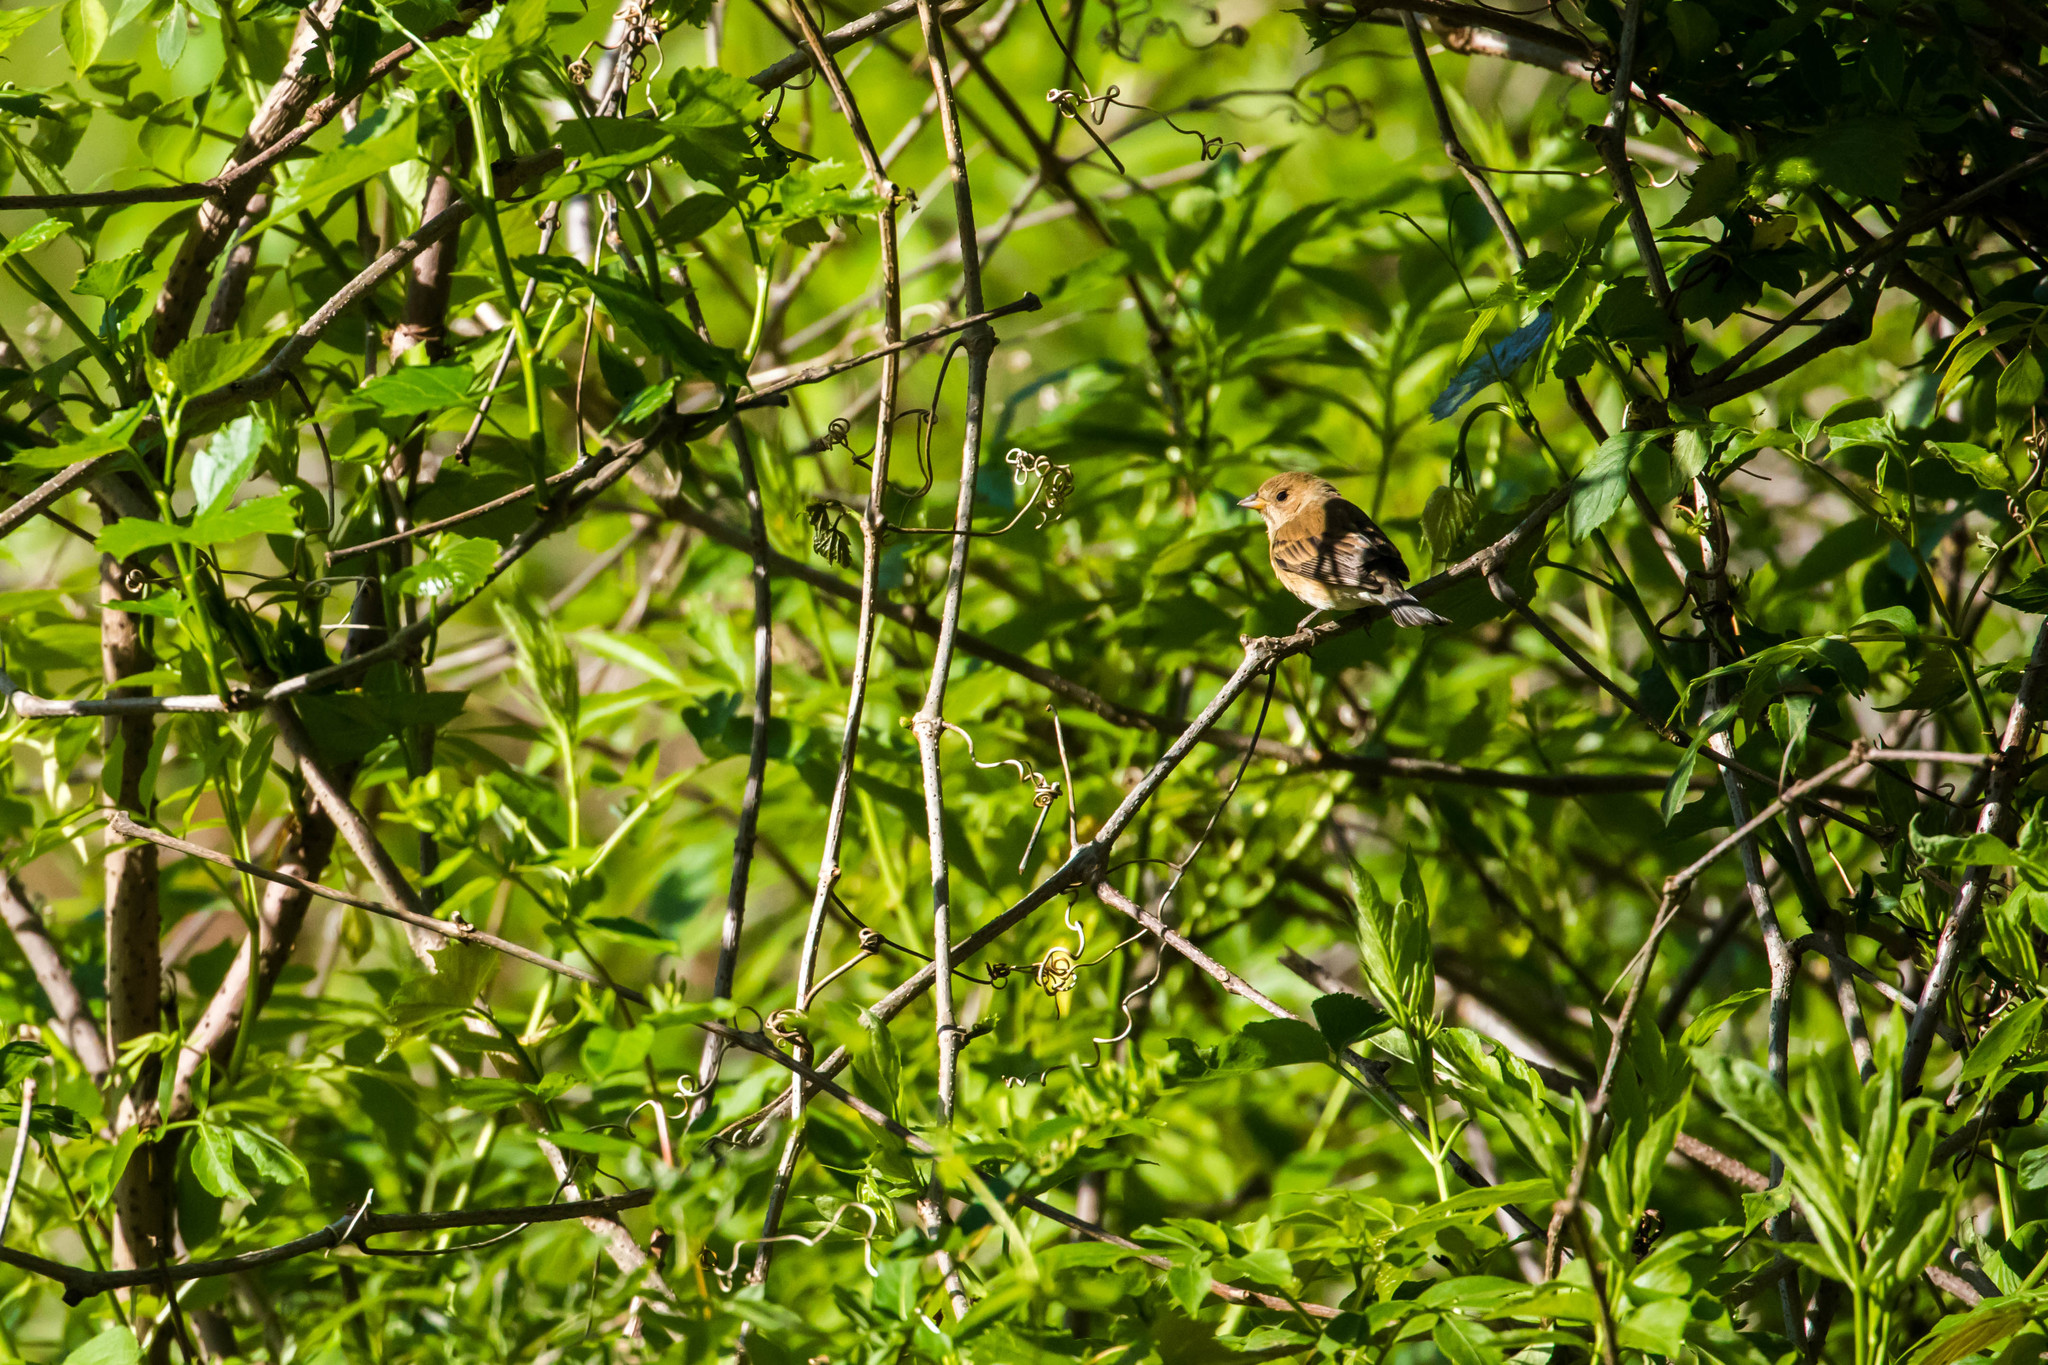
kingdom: Animalia
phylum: Chordata
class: Aves
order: Passeriformes
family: Cardinalidae
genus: Passerina
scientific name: Passerina cyanea
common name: Indigo bunting
